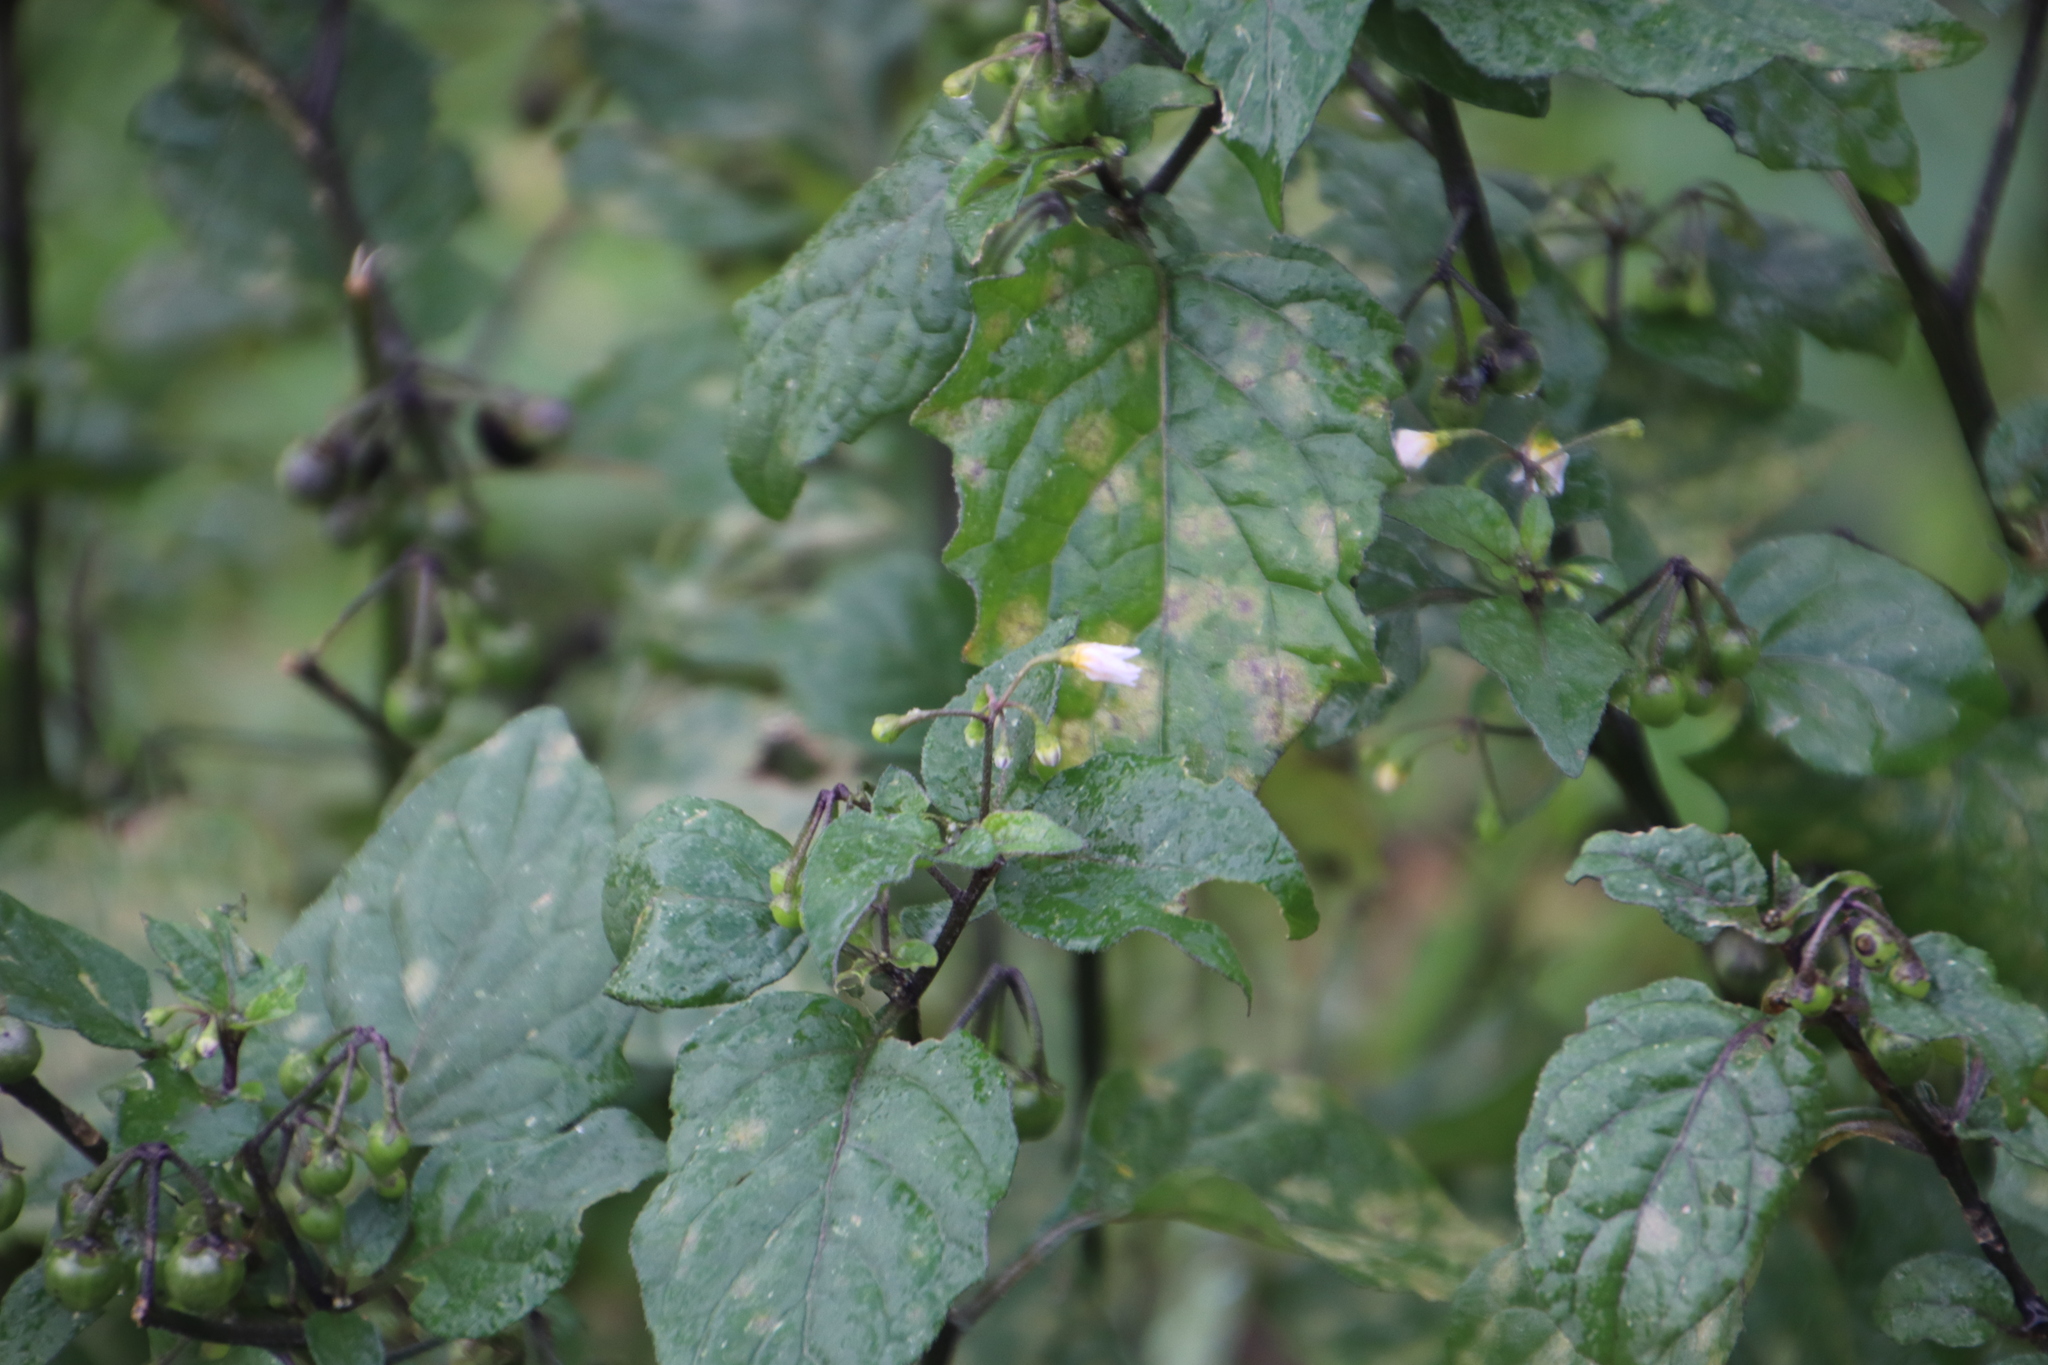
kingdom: Plantae
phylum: Tracheophyta
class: Magnoliopsida
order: Solanales
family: Solanaceae
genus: Solanum
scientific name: Solanum nigrum
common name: Black nightshade
